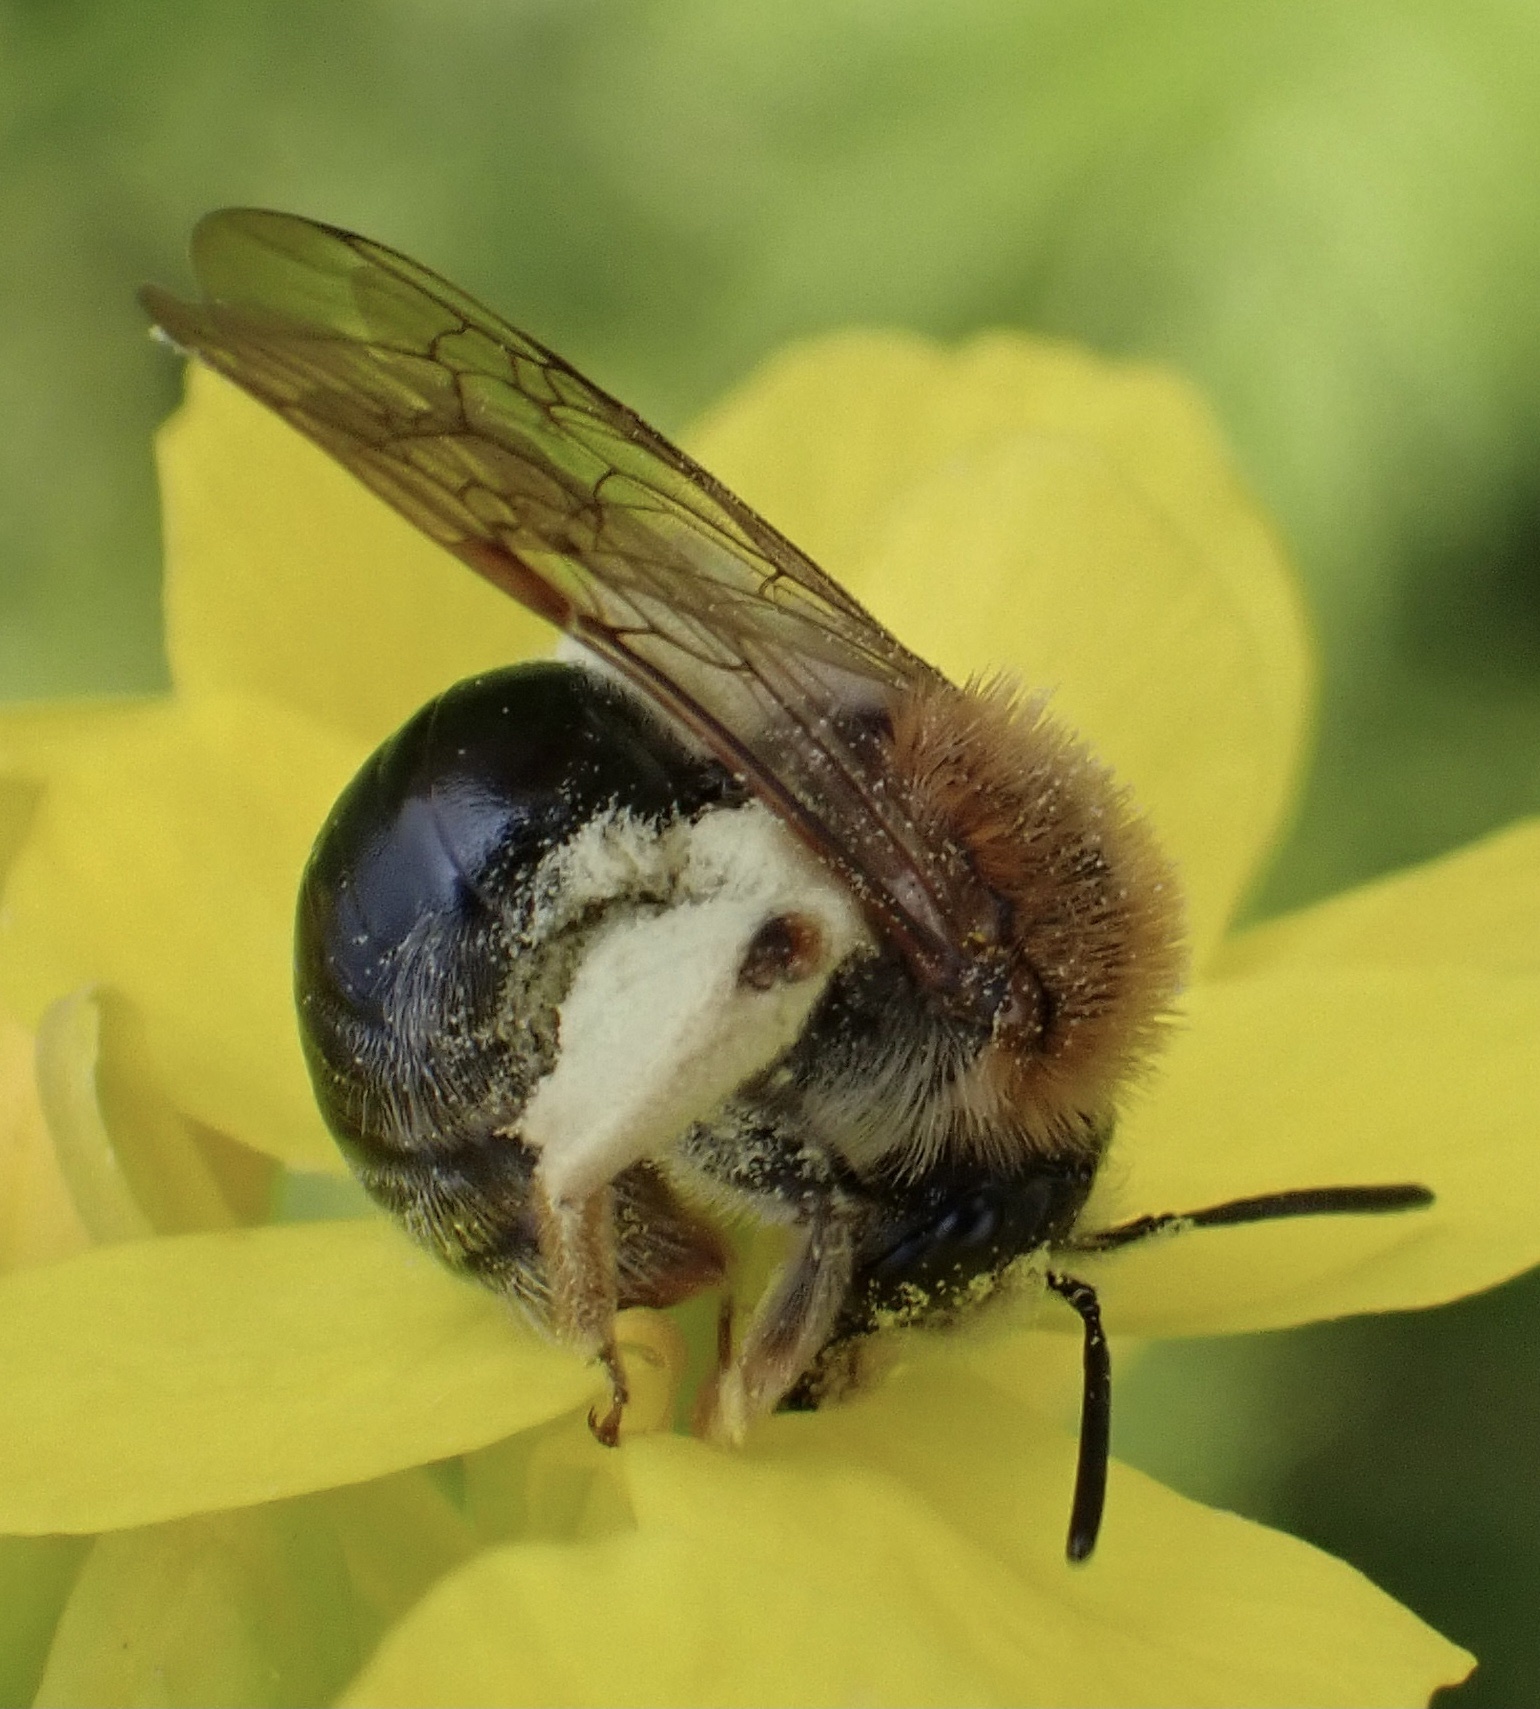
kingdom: Animalia
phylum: Arthropoda
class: Insecta
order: Hymenoptera
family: Andrenidae
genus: Andrena
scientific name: Andrena haemorrhoa
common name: Early mining bee
